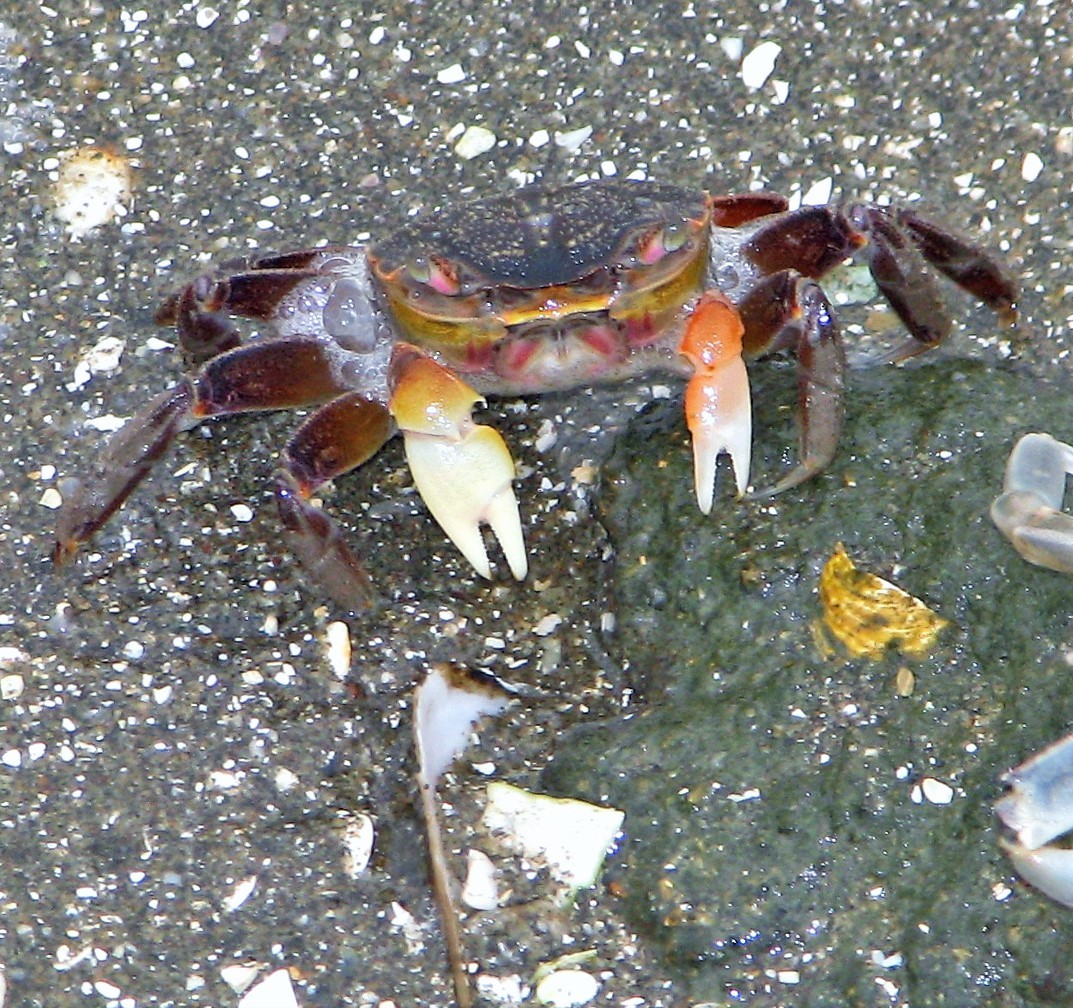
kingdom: Animalia
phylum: Arthropoda
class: Malacostraca
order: Decapoda
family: Varunidae
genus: Neohelice
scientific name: Neohelice granulata
